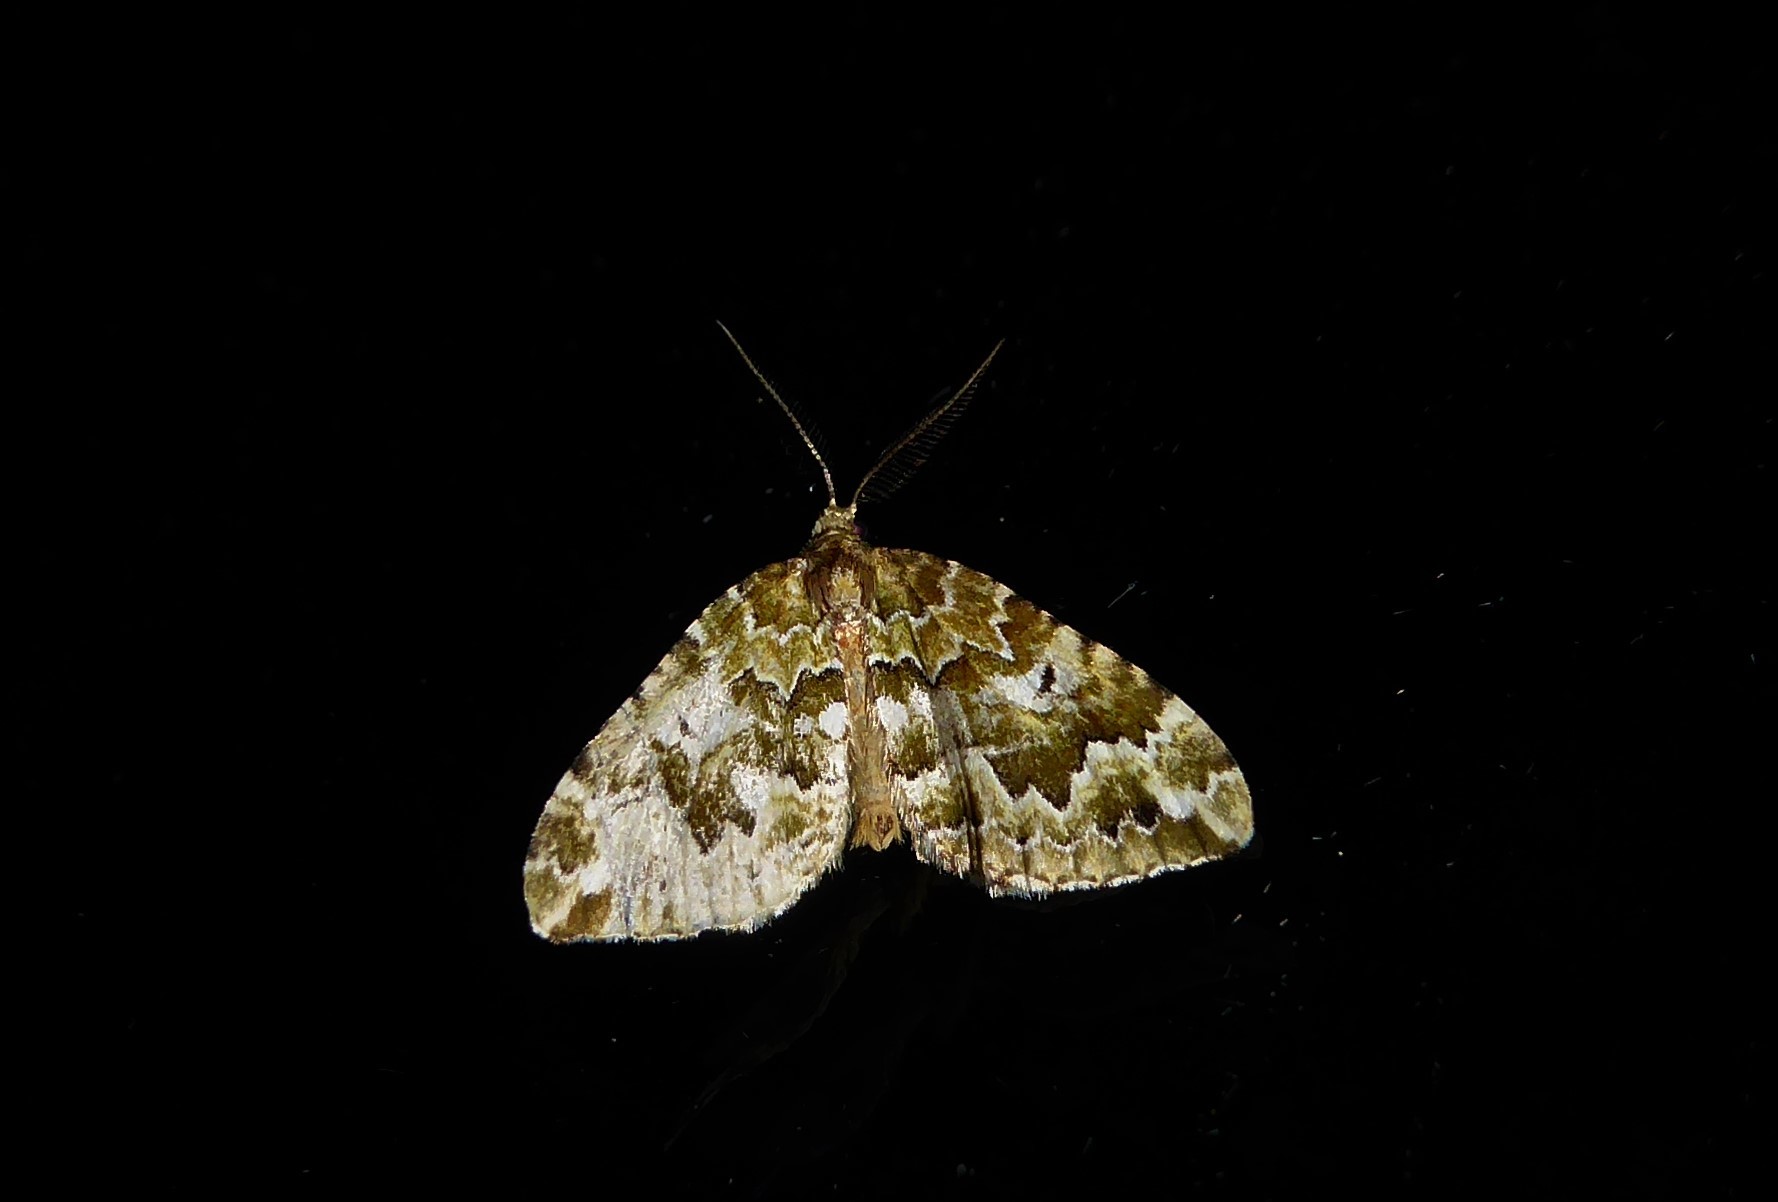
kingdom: Animalia
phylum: Arthropoda
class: Insecta
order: Lepidoptera
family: Geometridae
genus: Asaphodes
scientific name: Asaphodes beata
